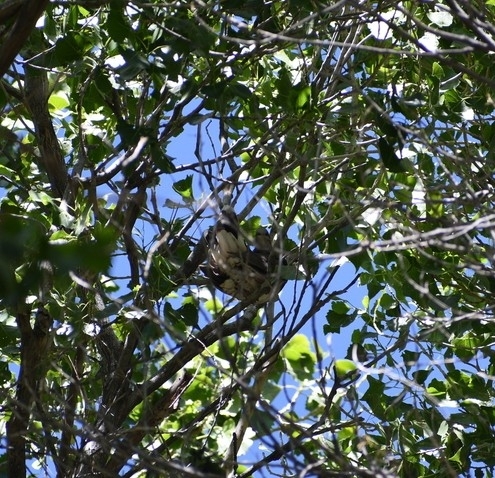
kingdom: Animalia
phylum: Chordata
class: Aves
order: Columbiformes
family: Columbidae
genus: Leptotila
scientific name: Leptotila verreauxi
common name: White-tipped dove
